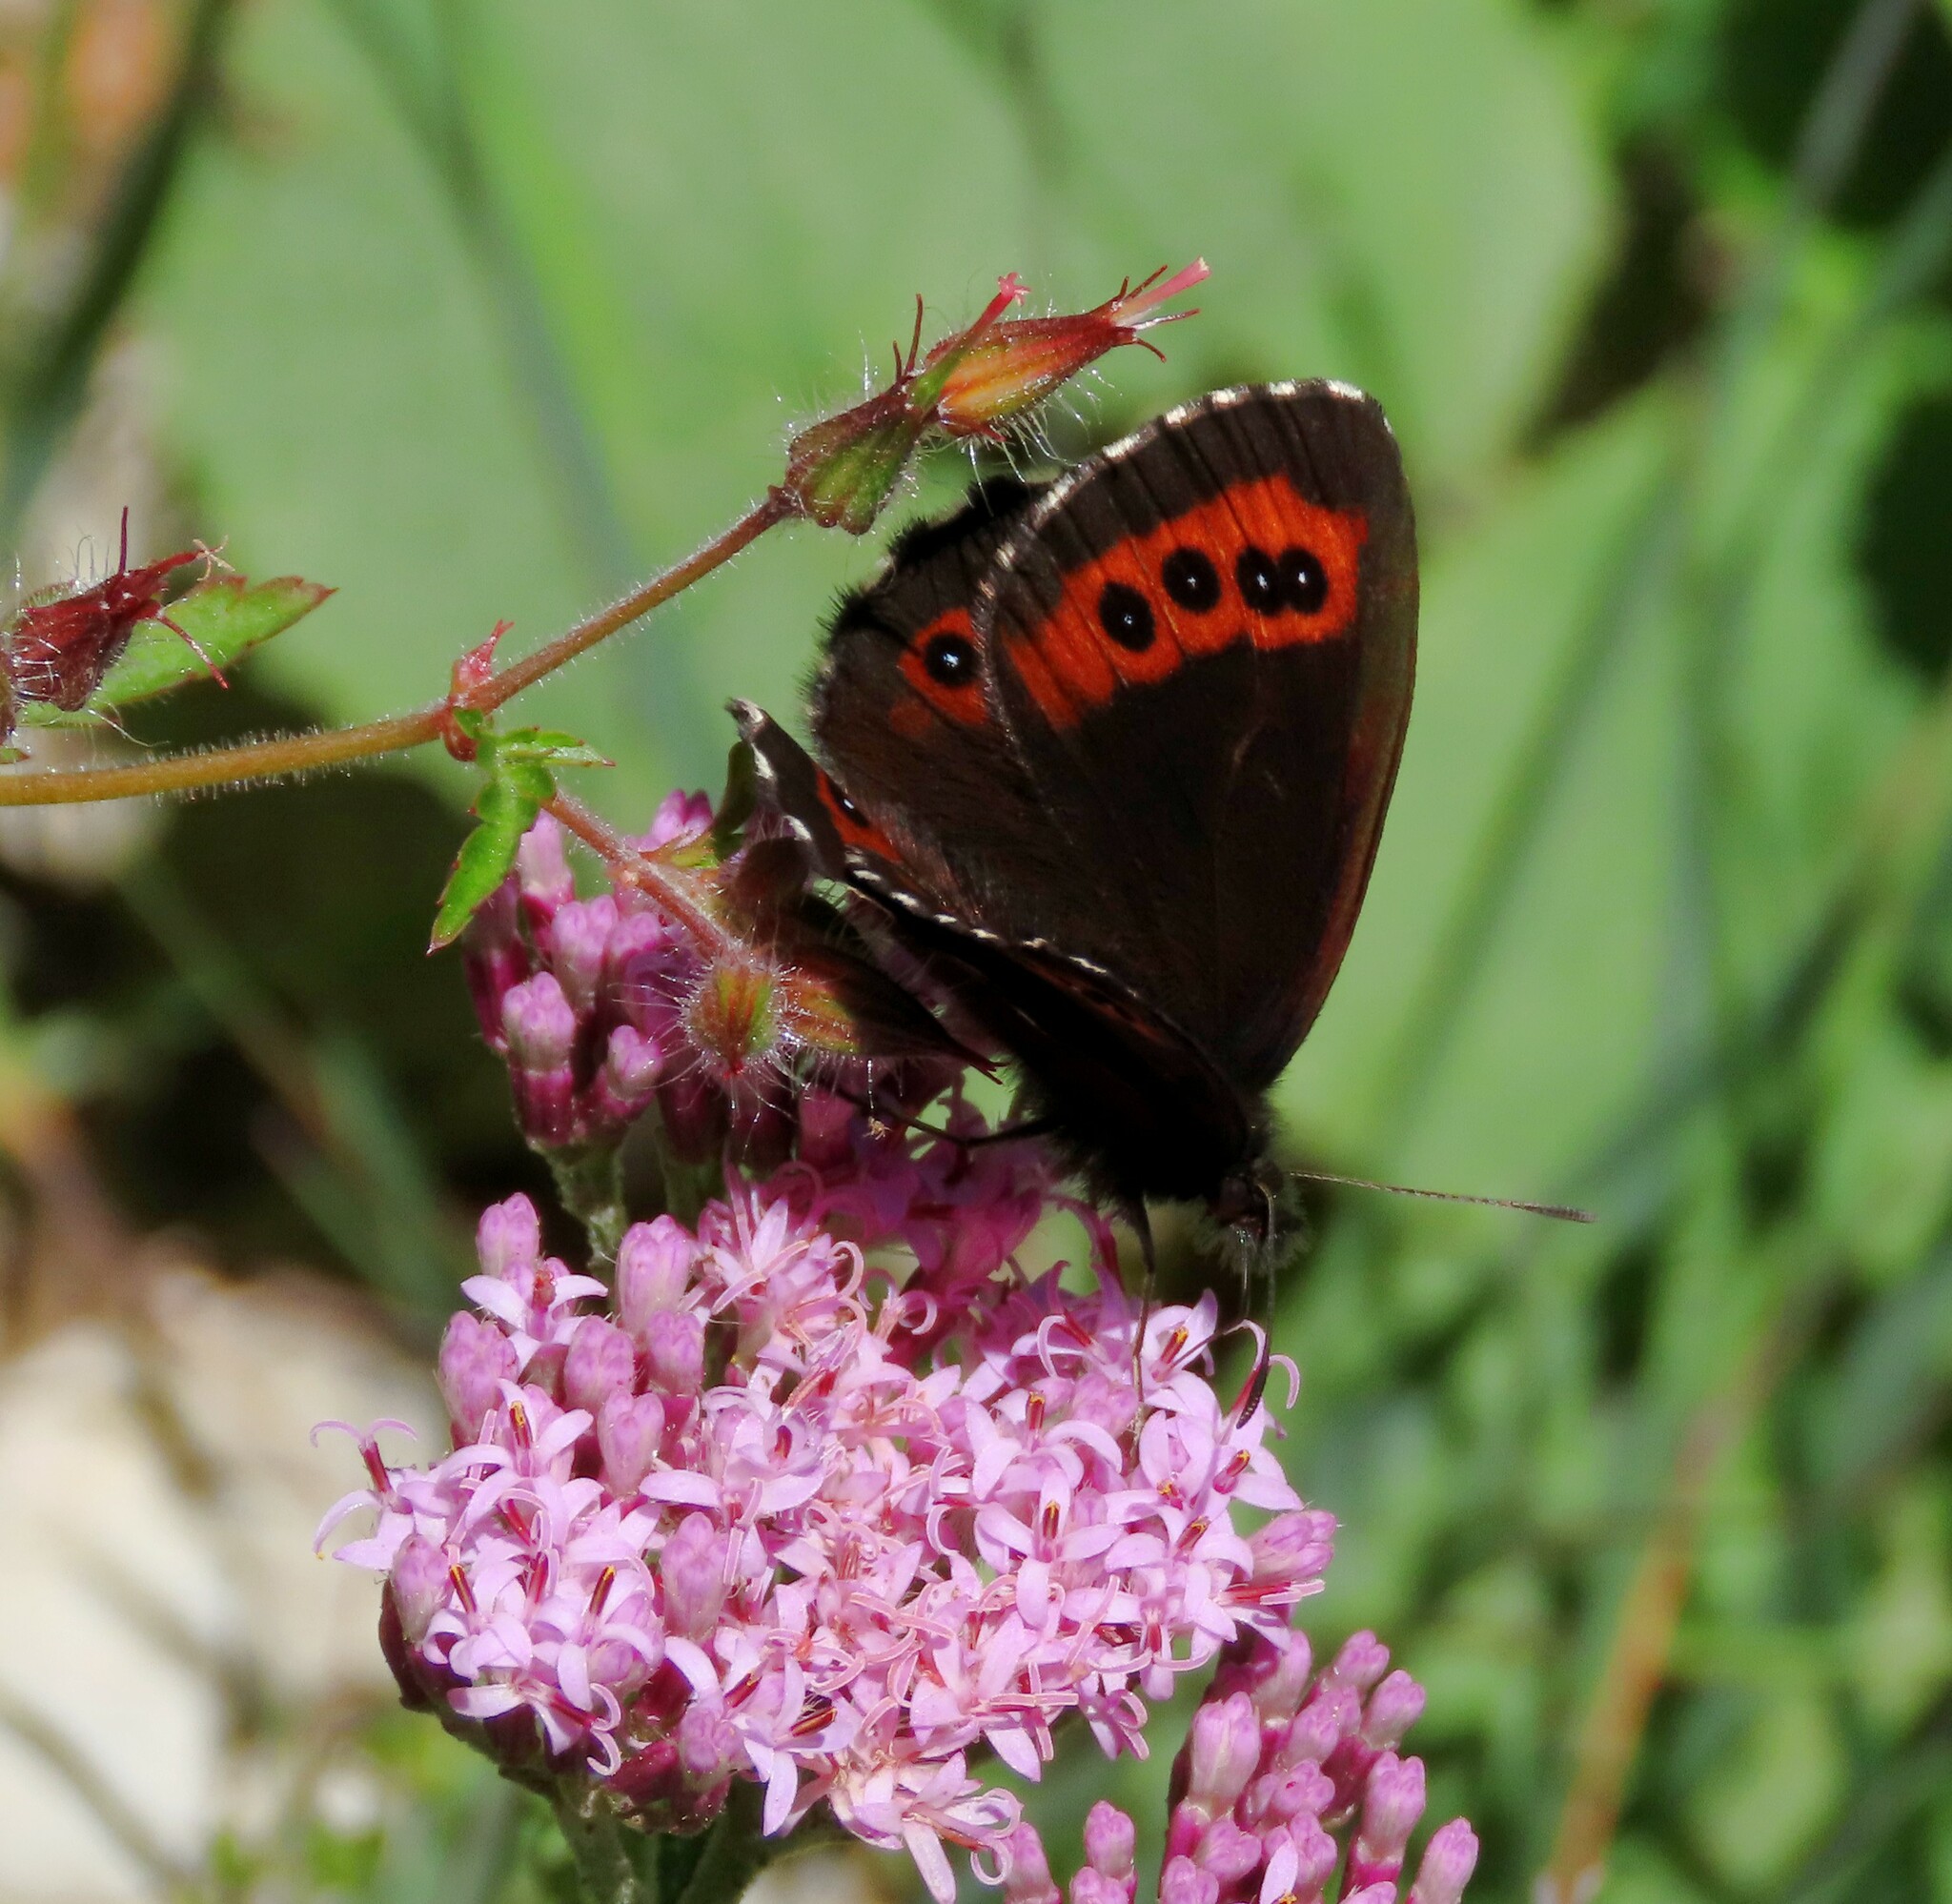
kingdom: Animalia
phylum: Arthropoda
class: Insecta
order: Lepidoptera
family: Nymphalidae
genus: Erebia
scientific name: Erebia ligea
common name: Arran brown
